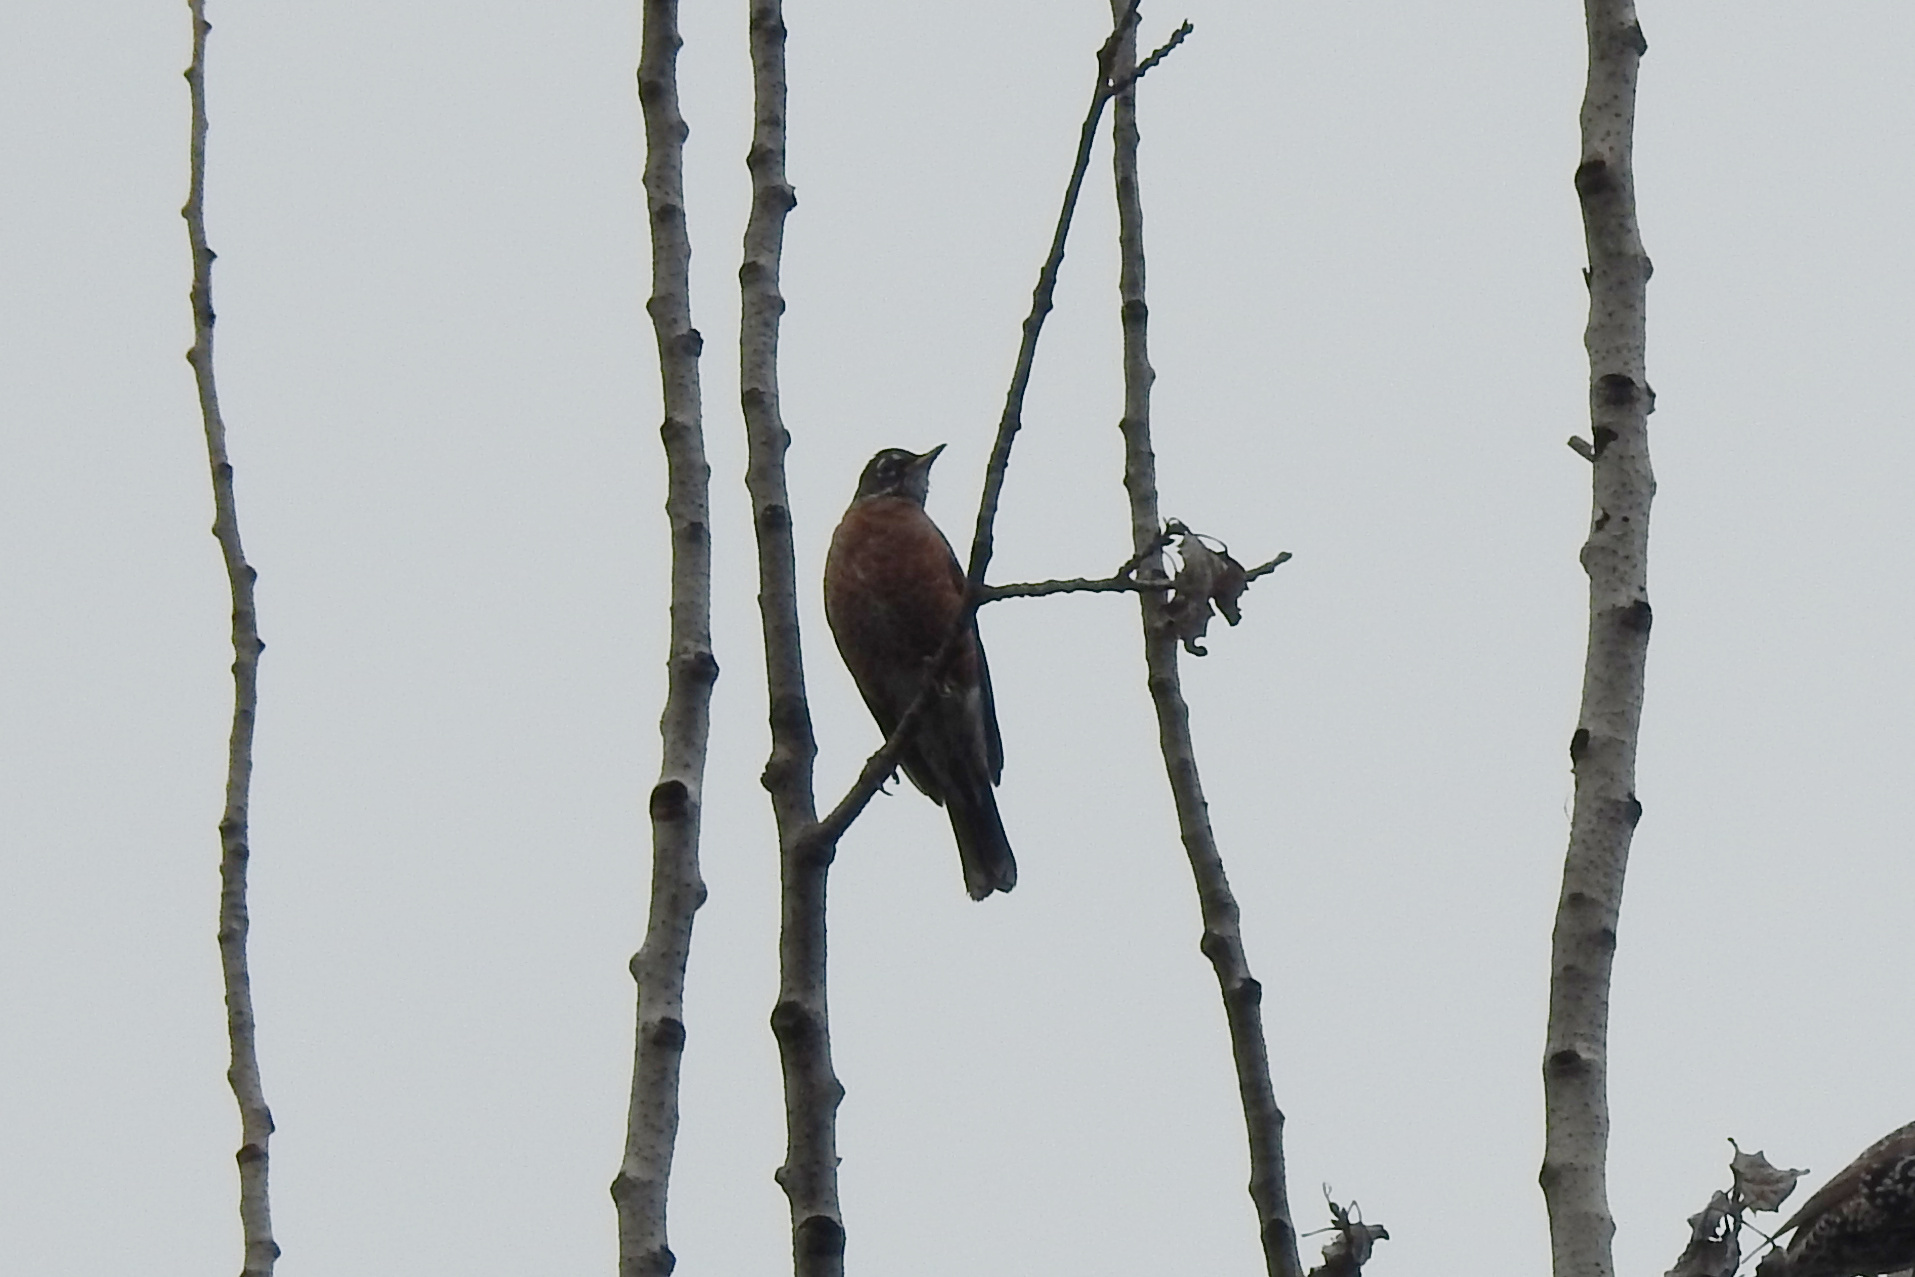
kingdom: Animalia
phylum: Chordata
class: Aves
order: Passeriformes
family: Turdidae
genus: Turdus
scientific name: Turdus migratorius
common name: American robin
